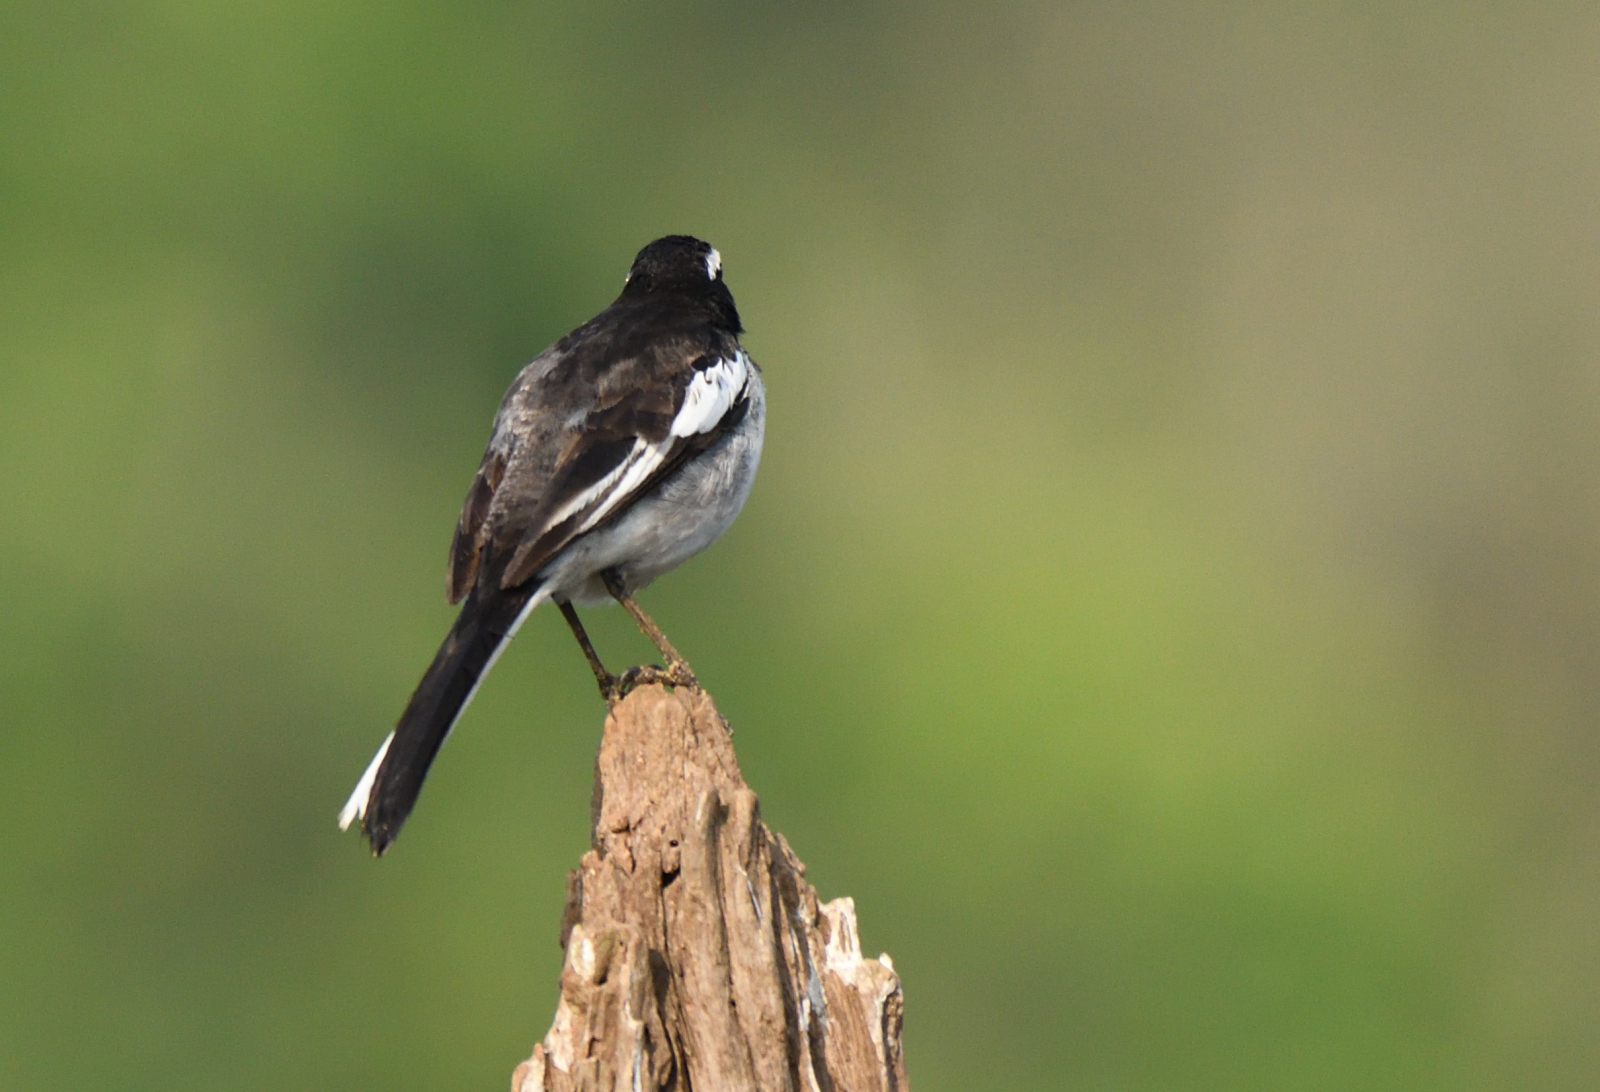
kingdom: Animalia
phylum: Chordata
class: Aves
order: Passeriformes
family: Motacillidae
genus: Motacilla
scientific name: Motacilla maderaspatensis
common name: White-browed wagtail
